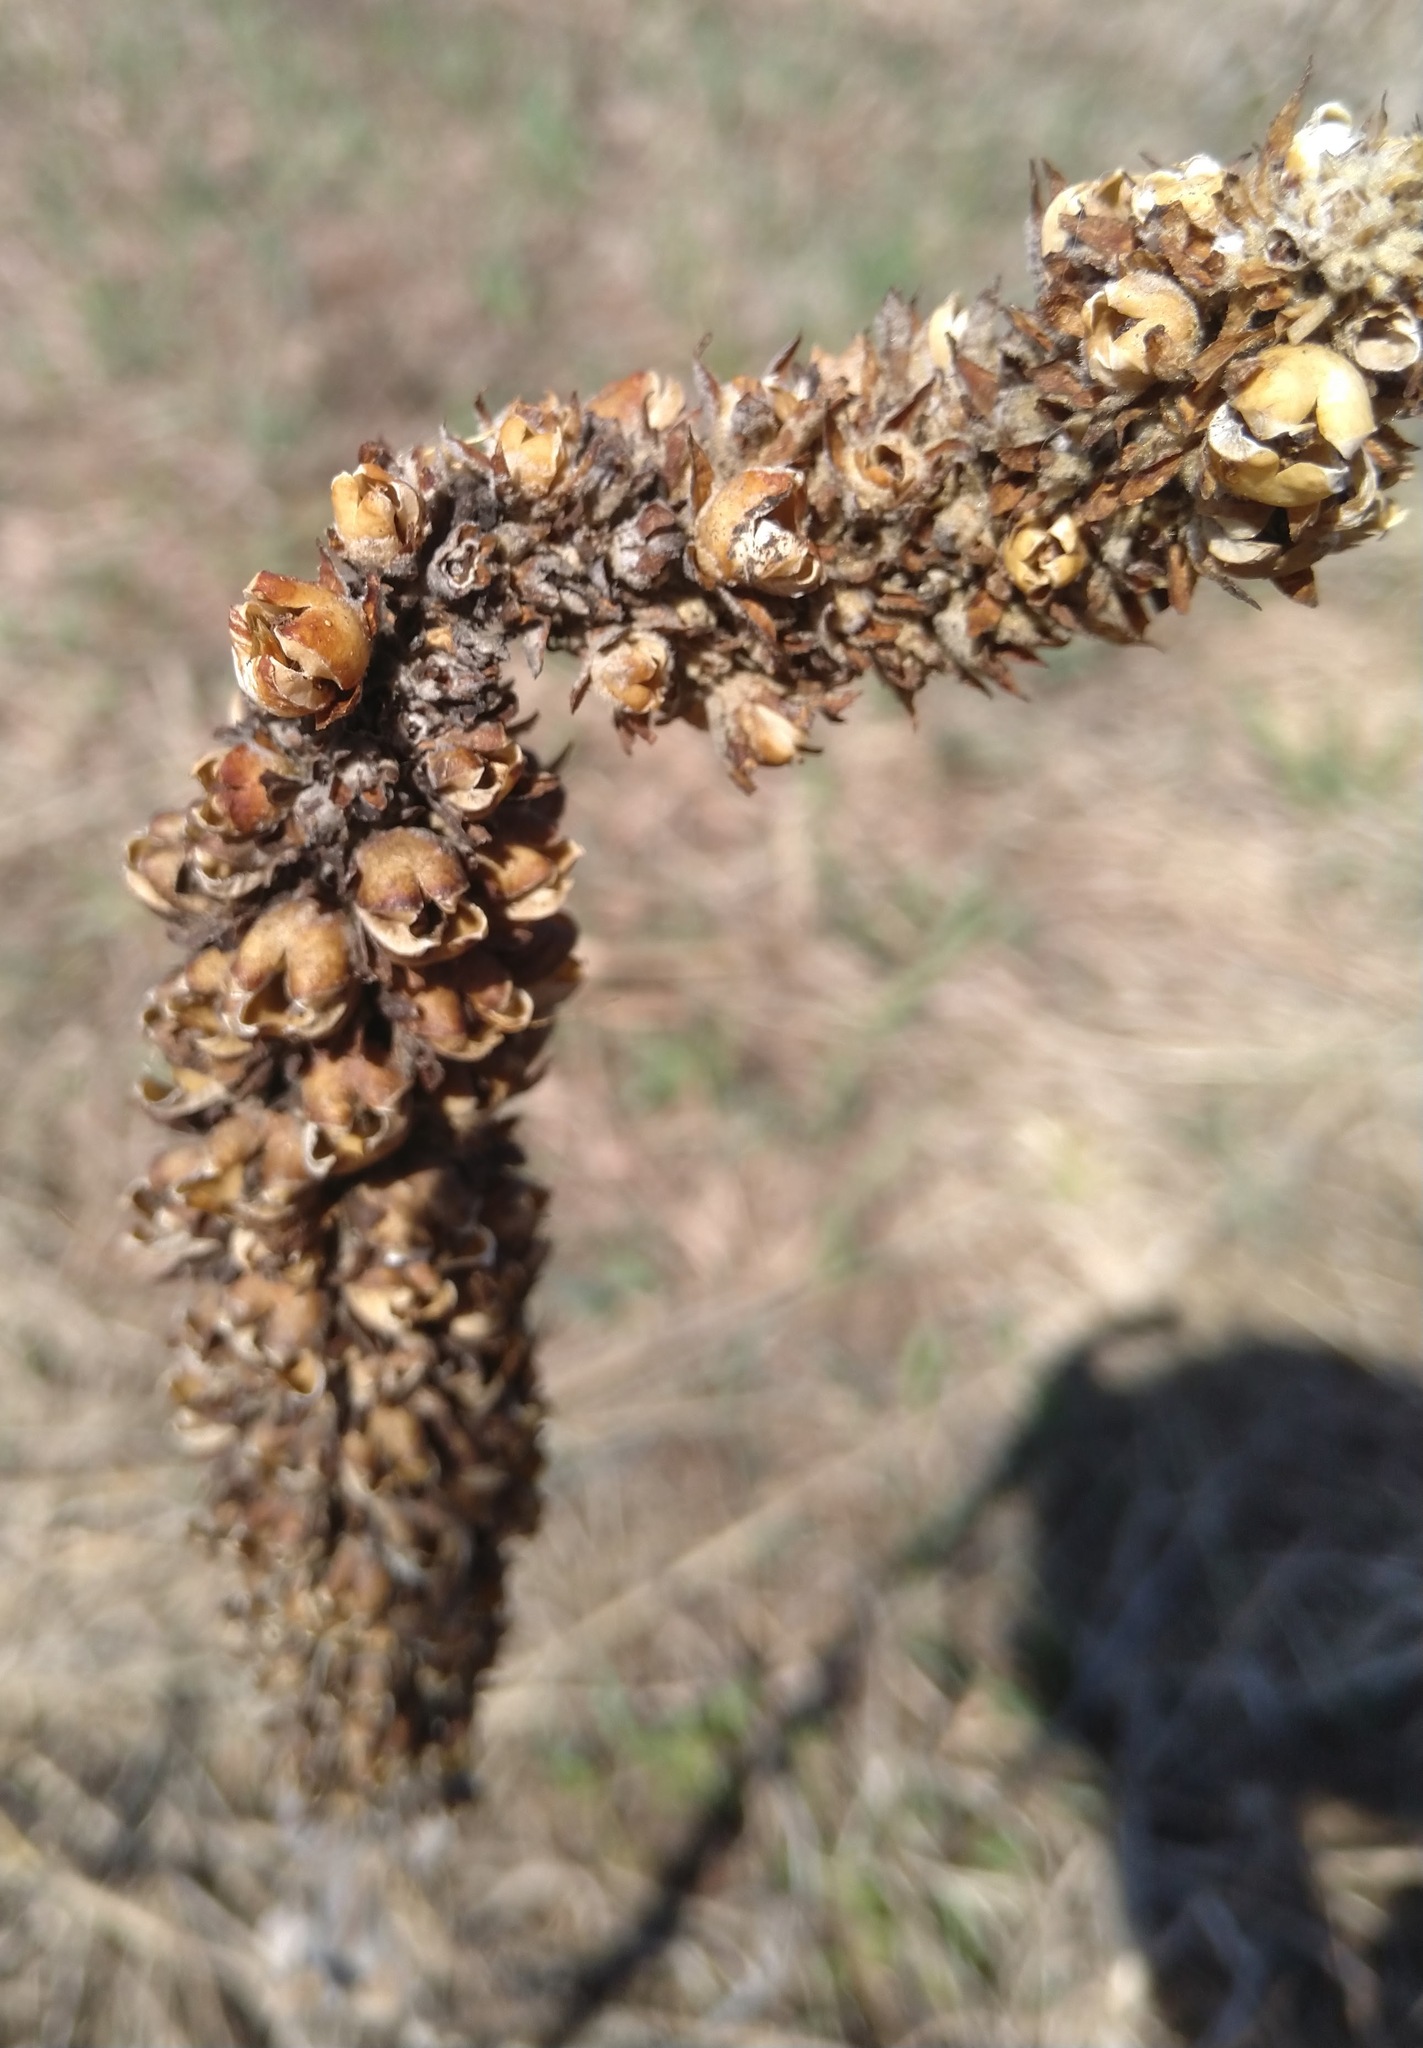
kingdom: Plantae
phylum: Tracheophyta
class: Magnoliopsida
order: Lamiales
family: Scrophulariaceae
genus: Verbascum
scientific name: Verbascum thapsus
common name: Common mullein
